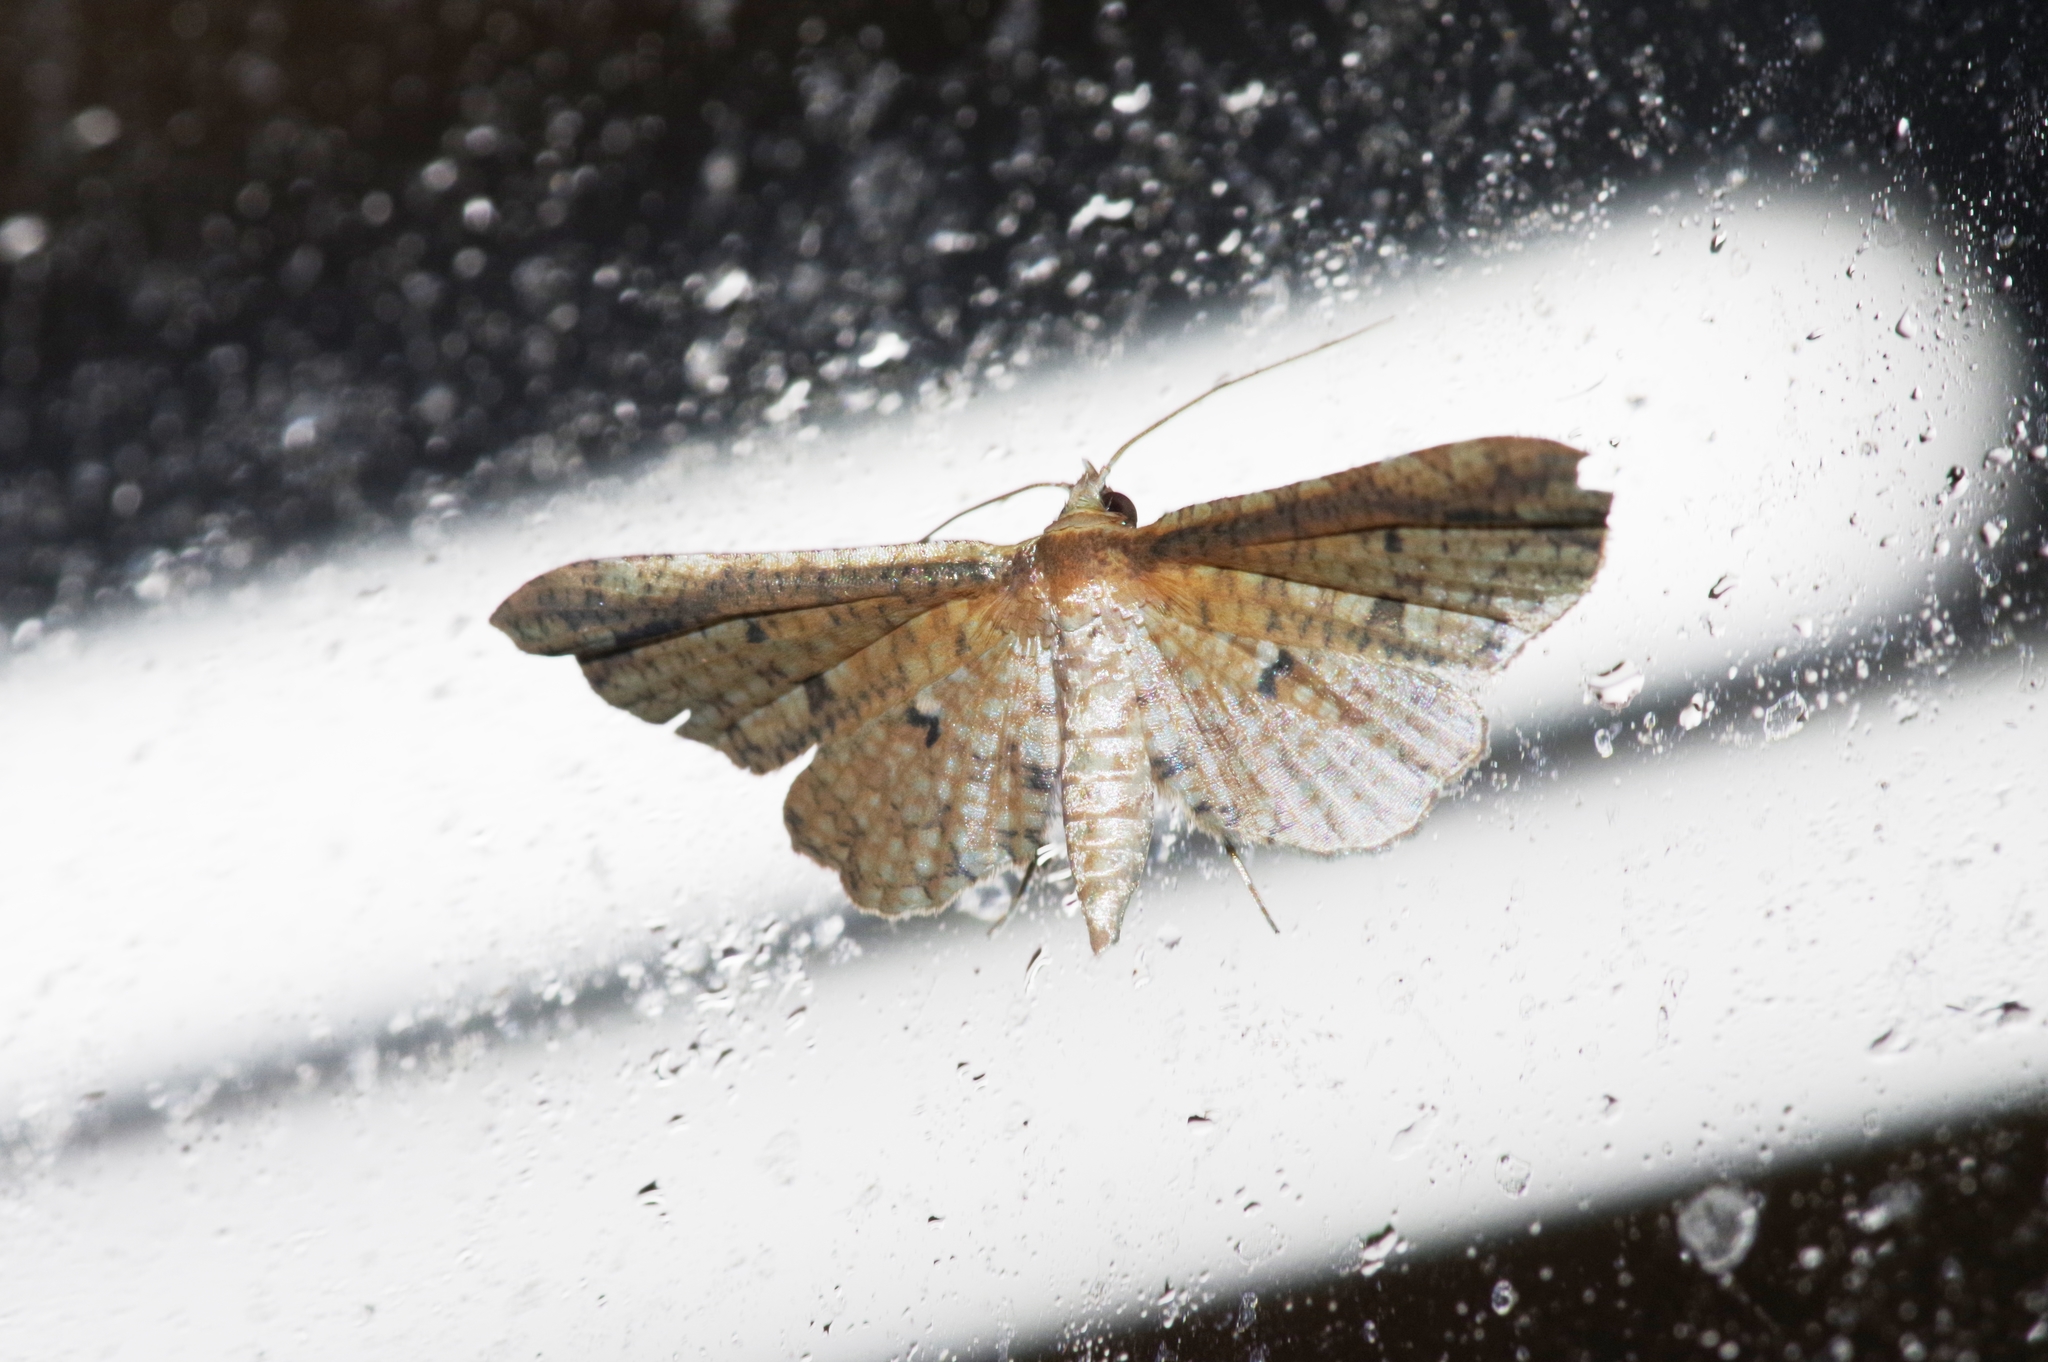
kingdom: Animalia
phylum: Arthropoda
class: Insecta
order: Lepidoptera
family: Thyrididae
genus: Pharambara
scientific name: Pharambara splendida
